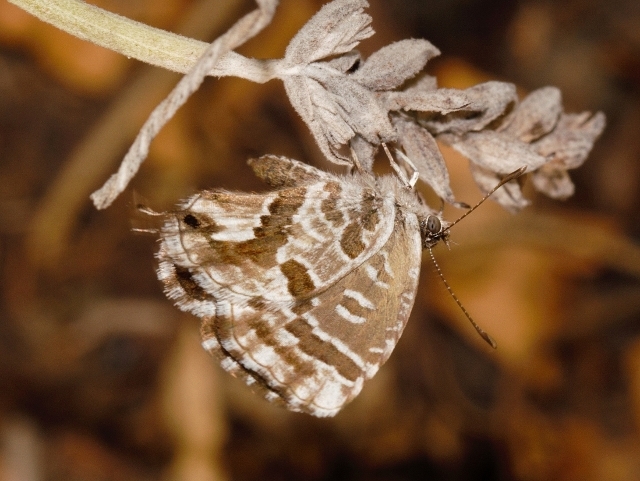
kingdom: Animalia
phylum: Arthropoda
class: Insecta
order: Lepidoptera
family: Lycaenidae
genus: Cacyreus
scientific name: Cacyreus fracta
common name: Water bronze
